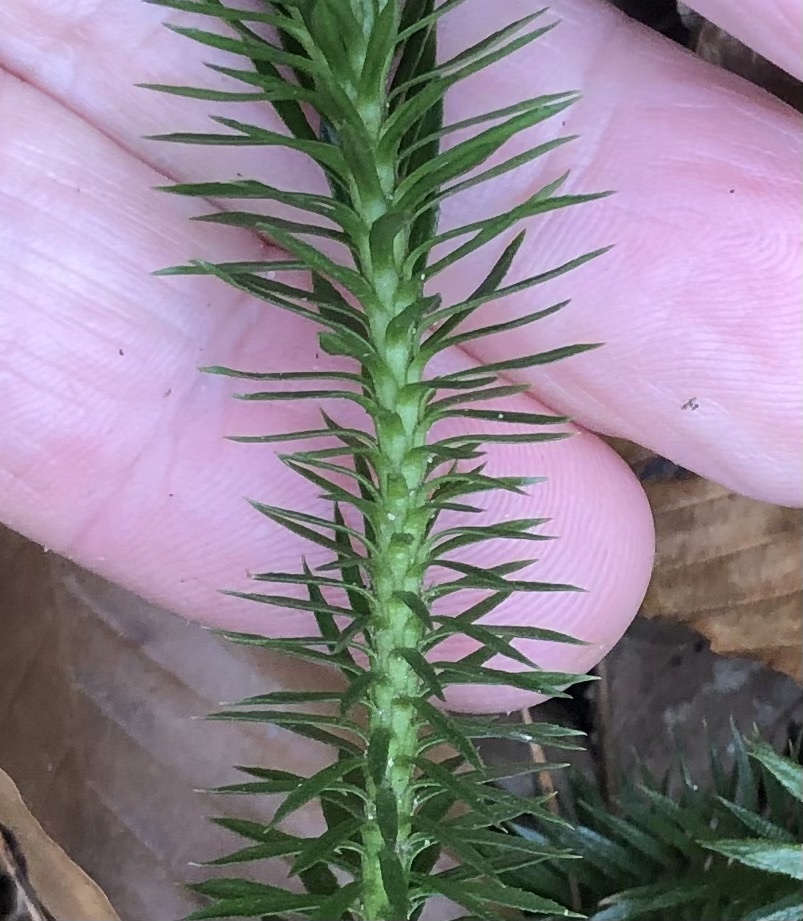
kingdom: Plantae
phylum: Tracheophyta
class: Lycopodiopsida
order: Lycopodiales
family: Lycopodiaceae
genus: Huperzia
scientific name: Huperzia lucidula
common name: Shining clubmoss
